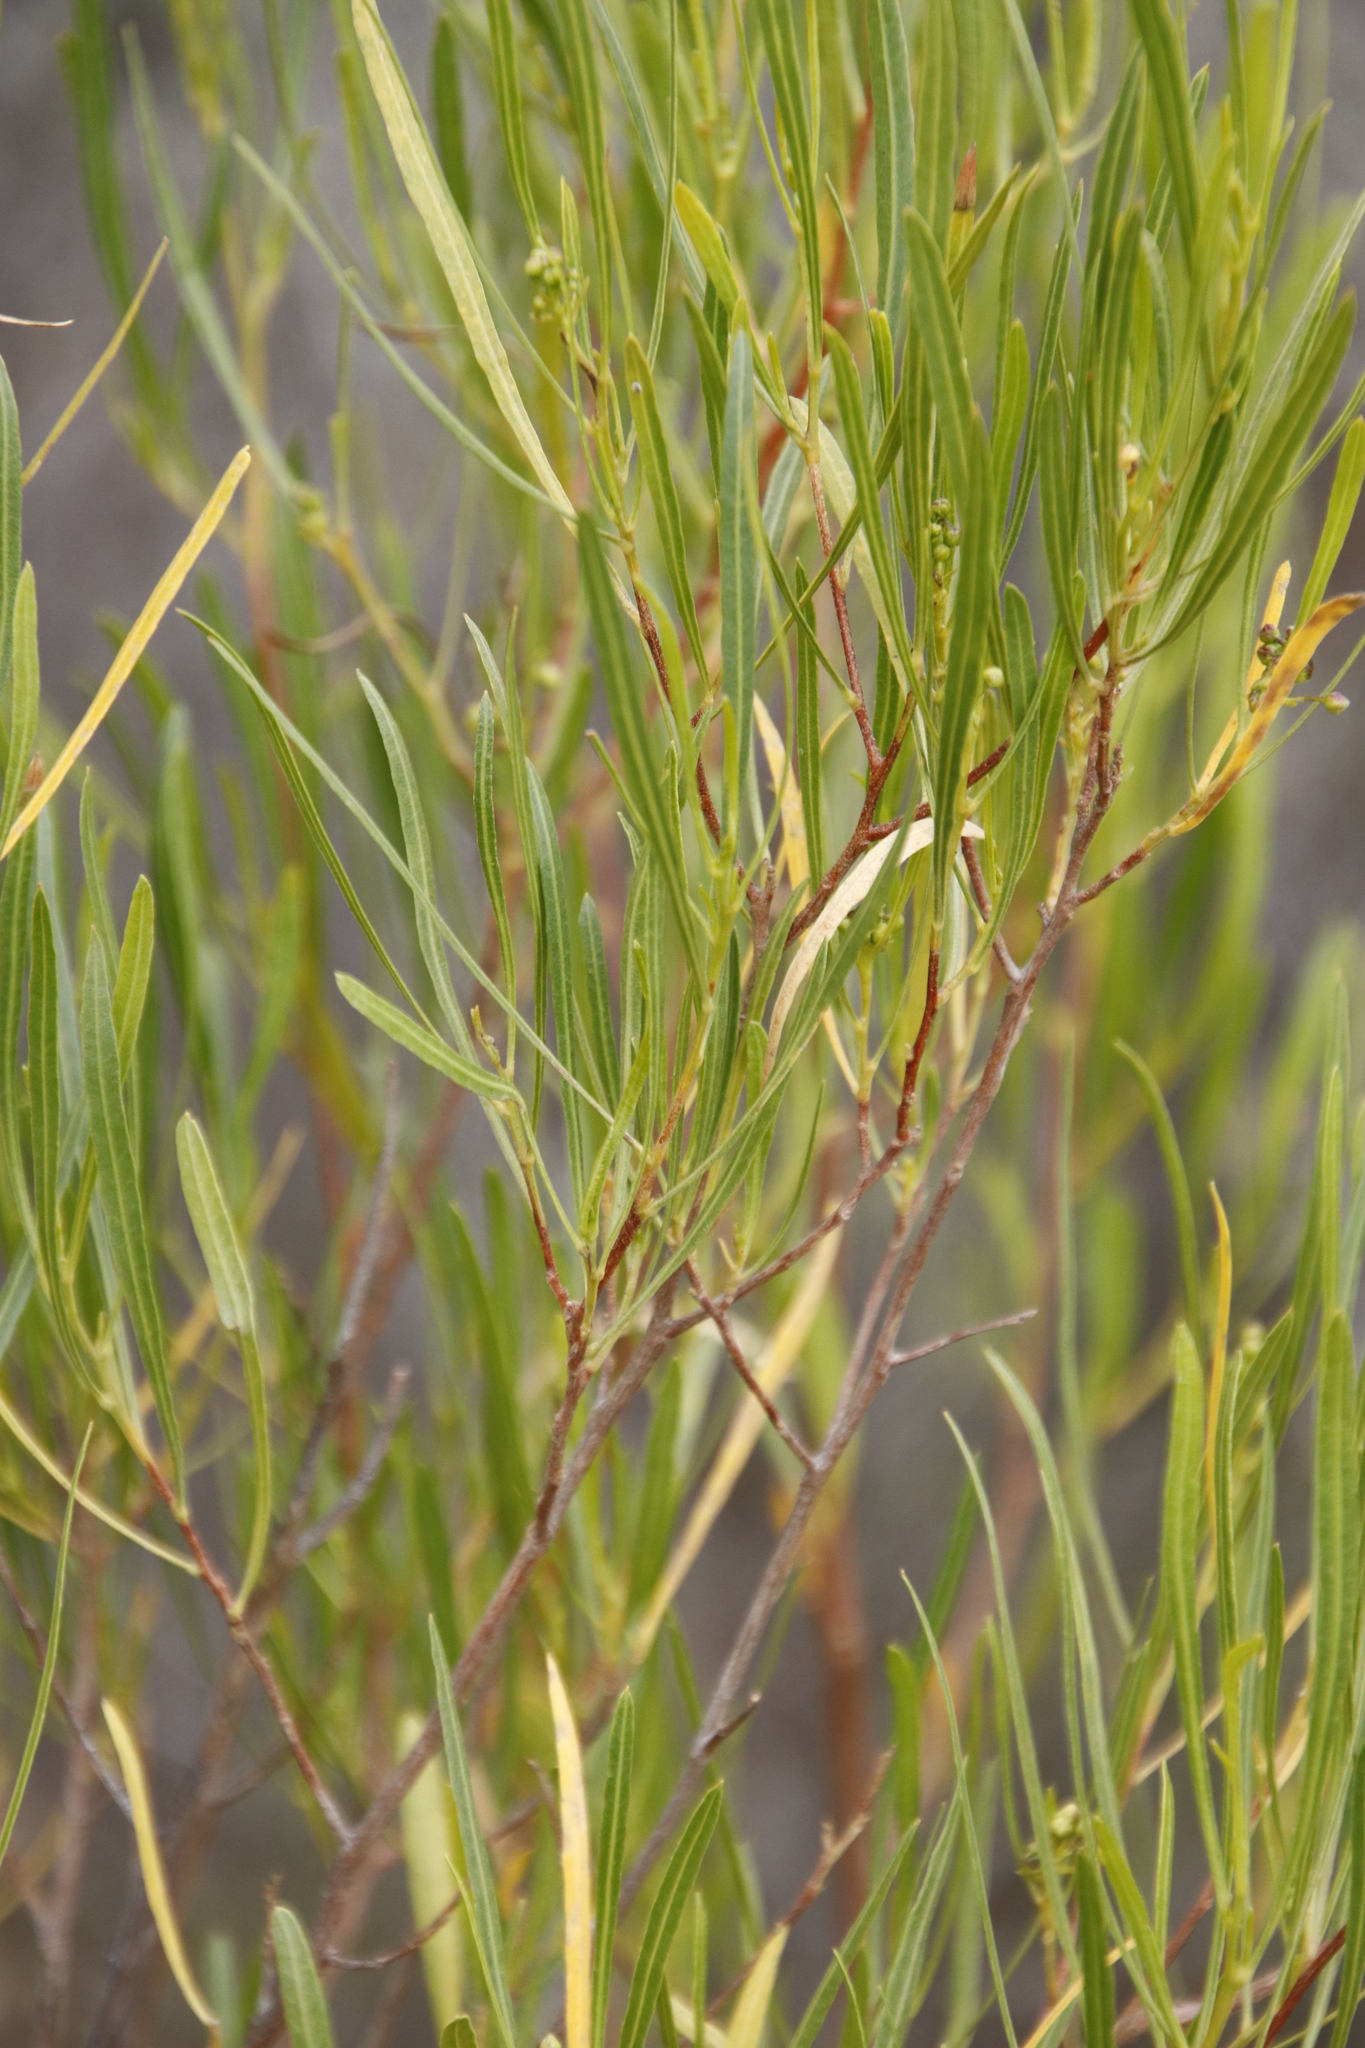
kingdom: Plantae
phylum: Tracheophyta
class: Magnoliopsida
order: Sapindales
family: Sapindaceae
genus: Dodonaea
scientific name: Dodonaea viscosa
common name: Hopbush
